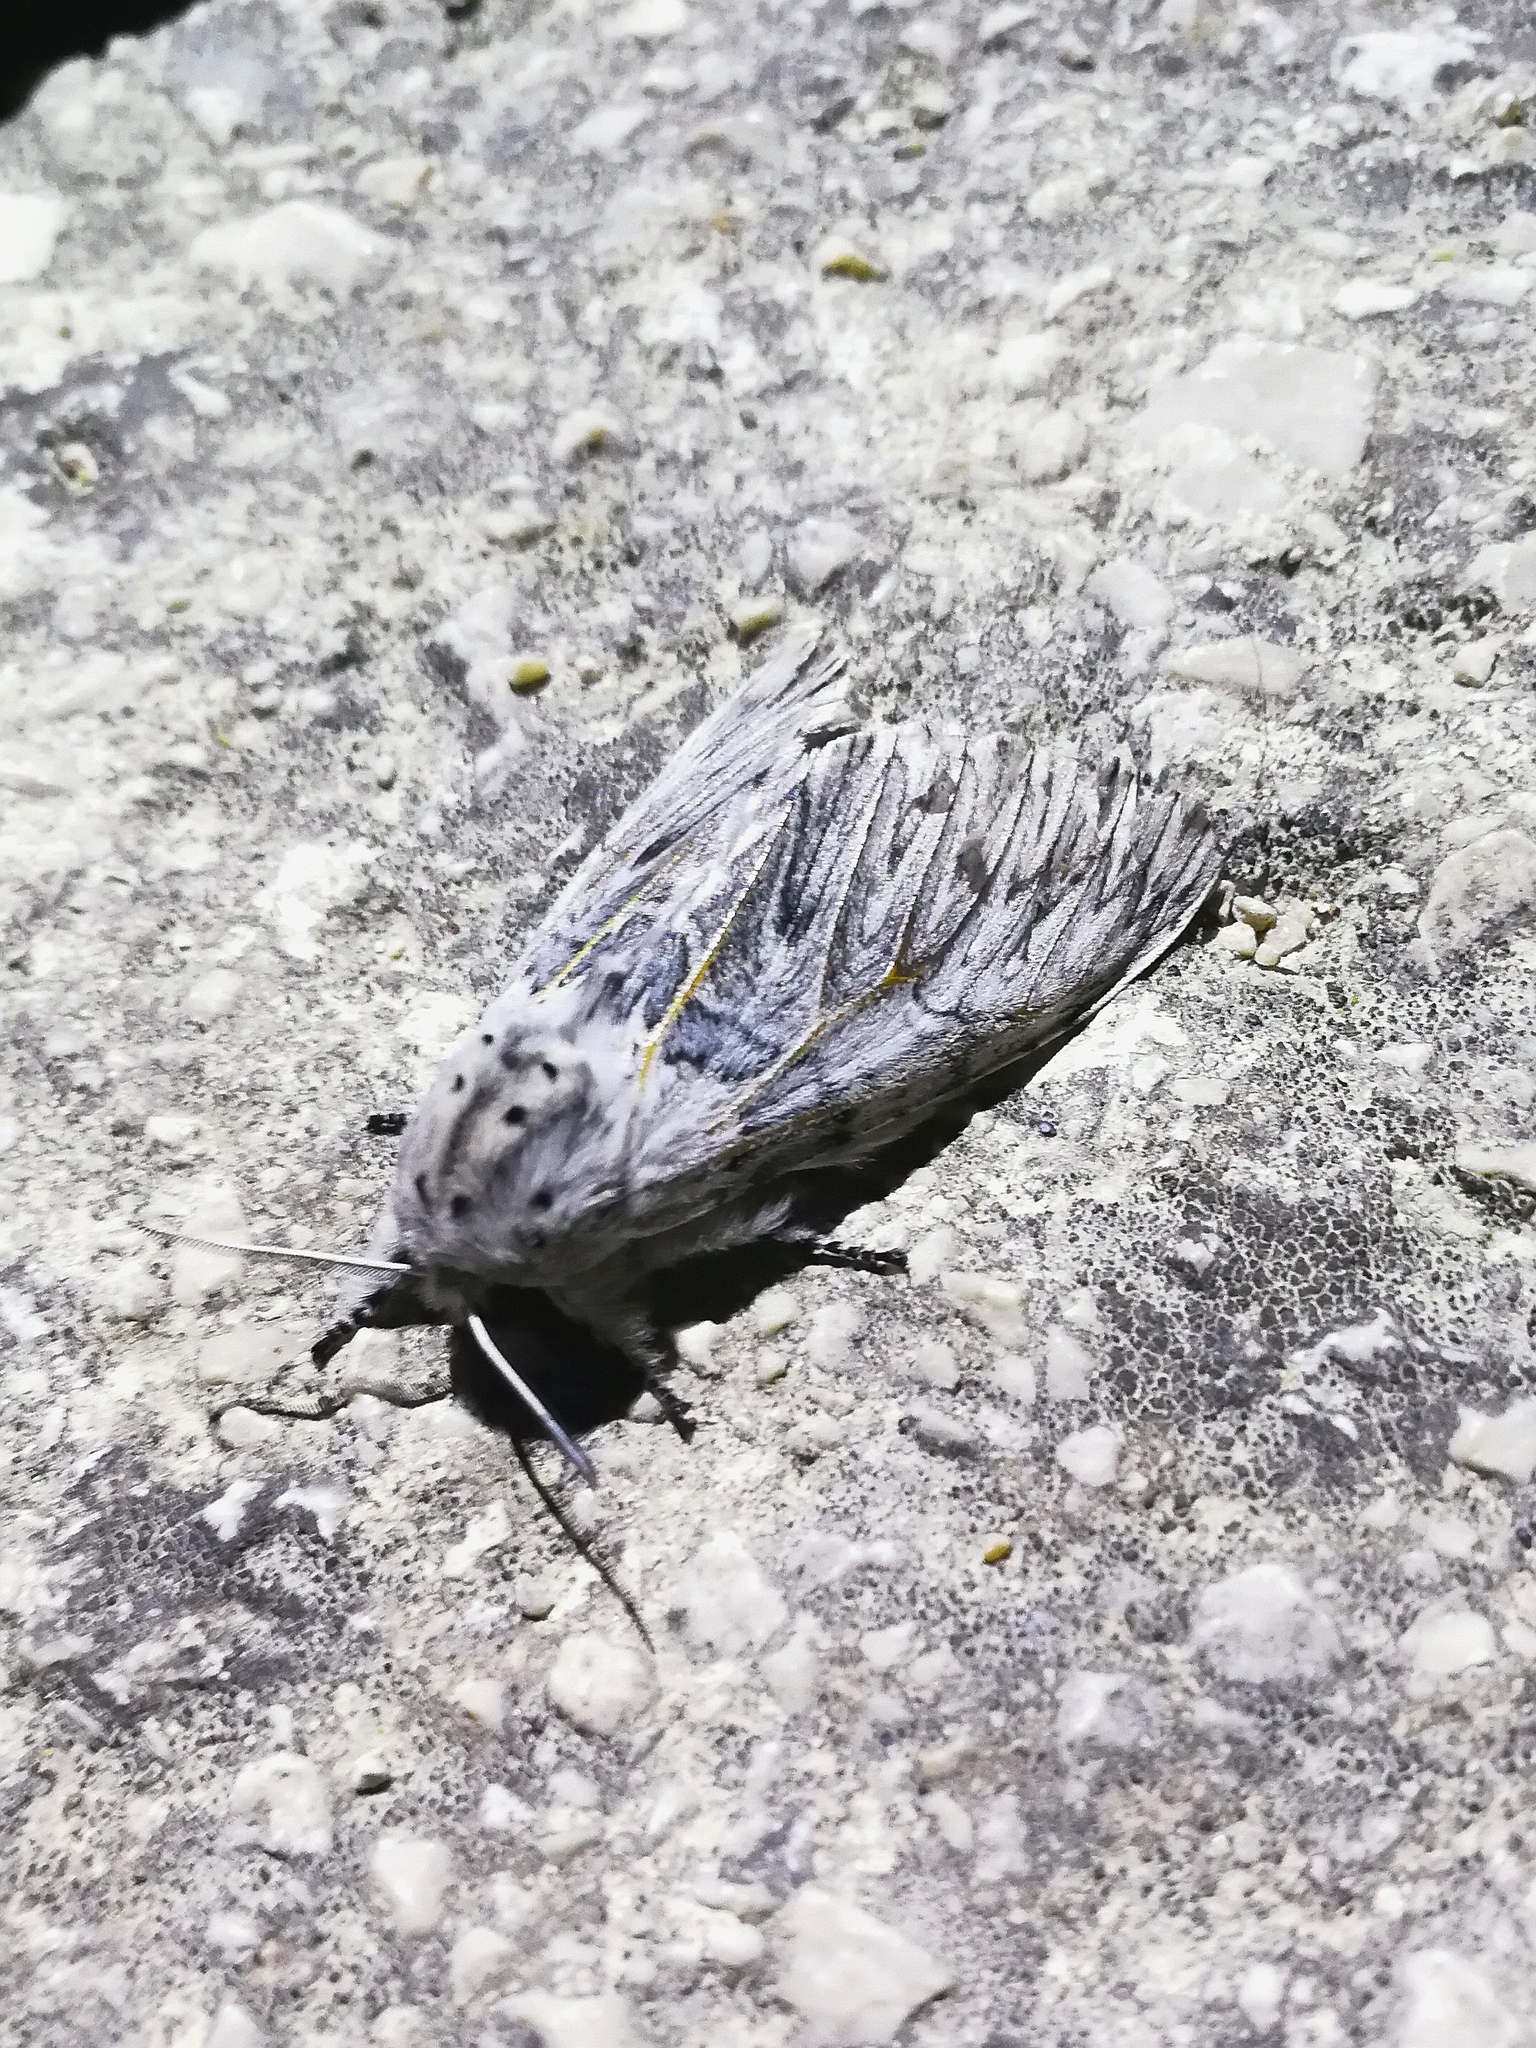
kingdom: Animalia
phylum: Arthropoda
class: Insecta
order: Lepidoptera
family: Notodontidae
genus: Cerura
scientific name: Cerura iberica
